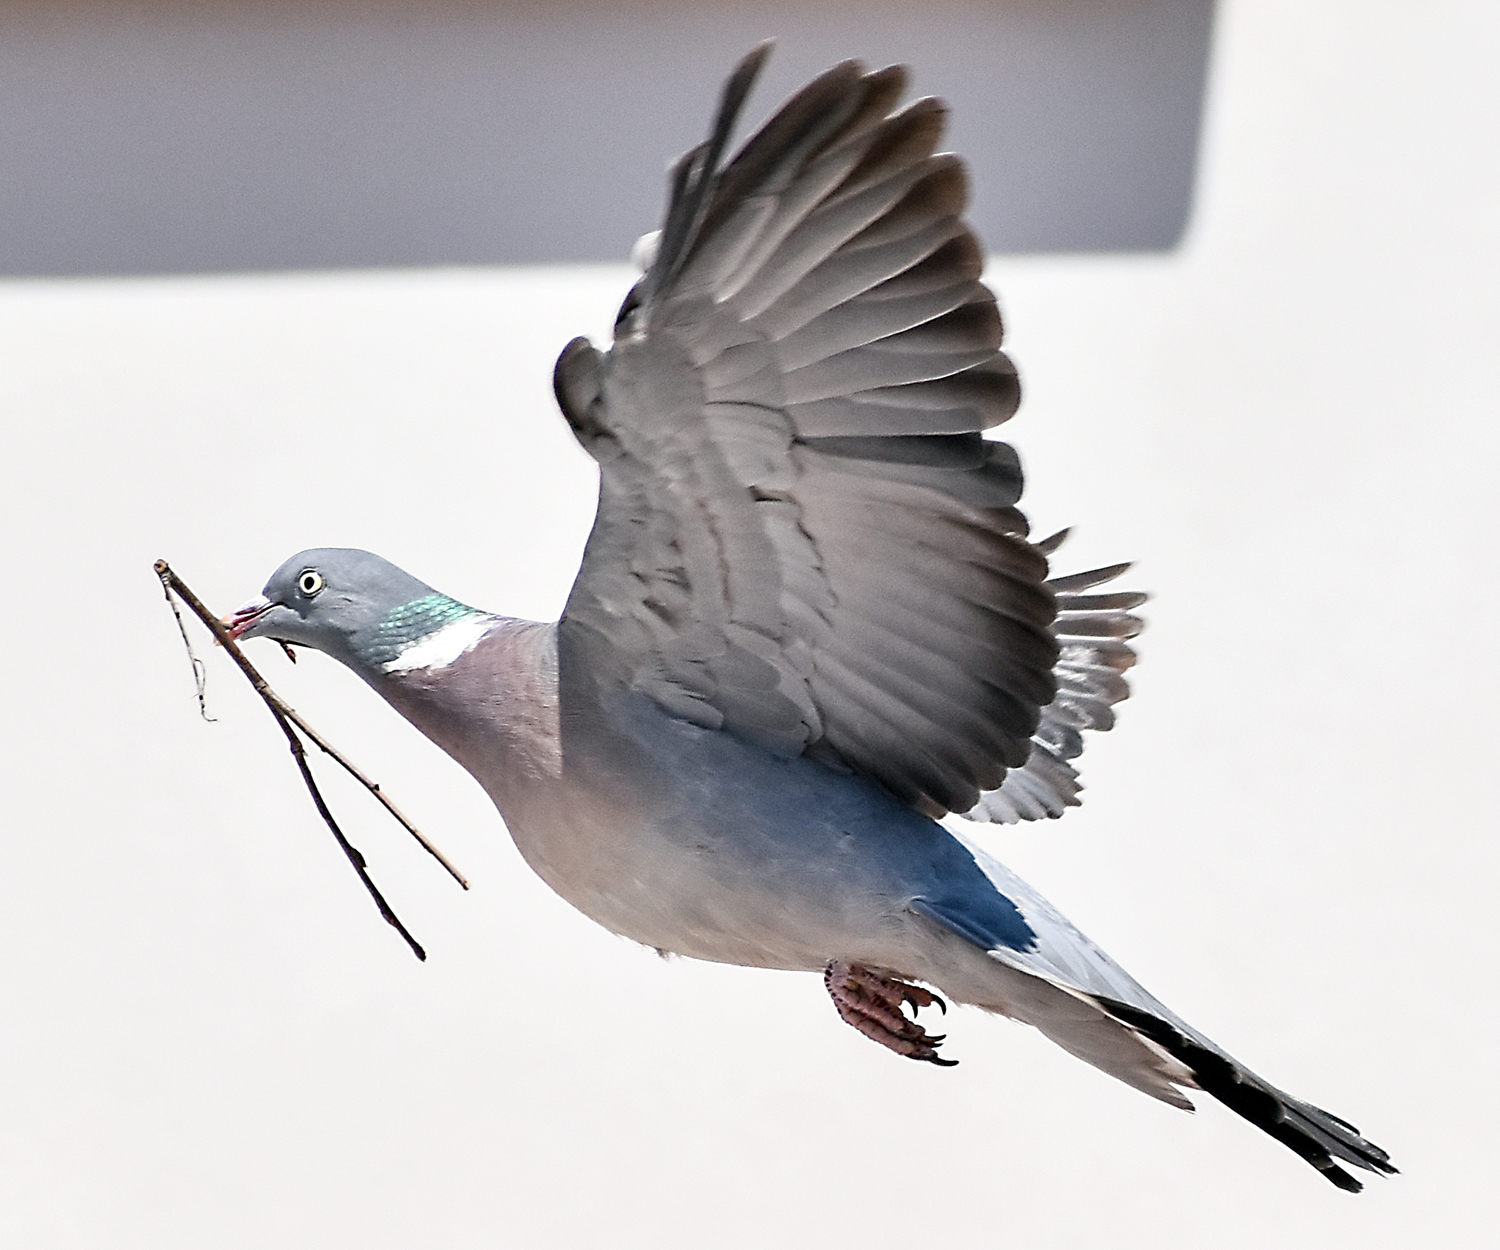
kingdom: Animalia
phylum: Chordata
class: Aves
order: Columbiformes
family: Columbidae
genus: Columba
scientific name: Columba palumbus
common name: Common wood pigeon
